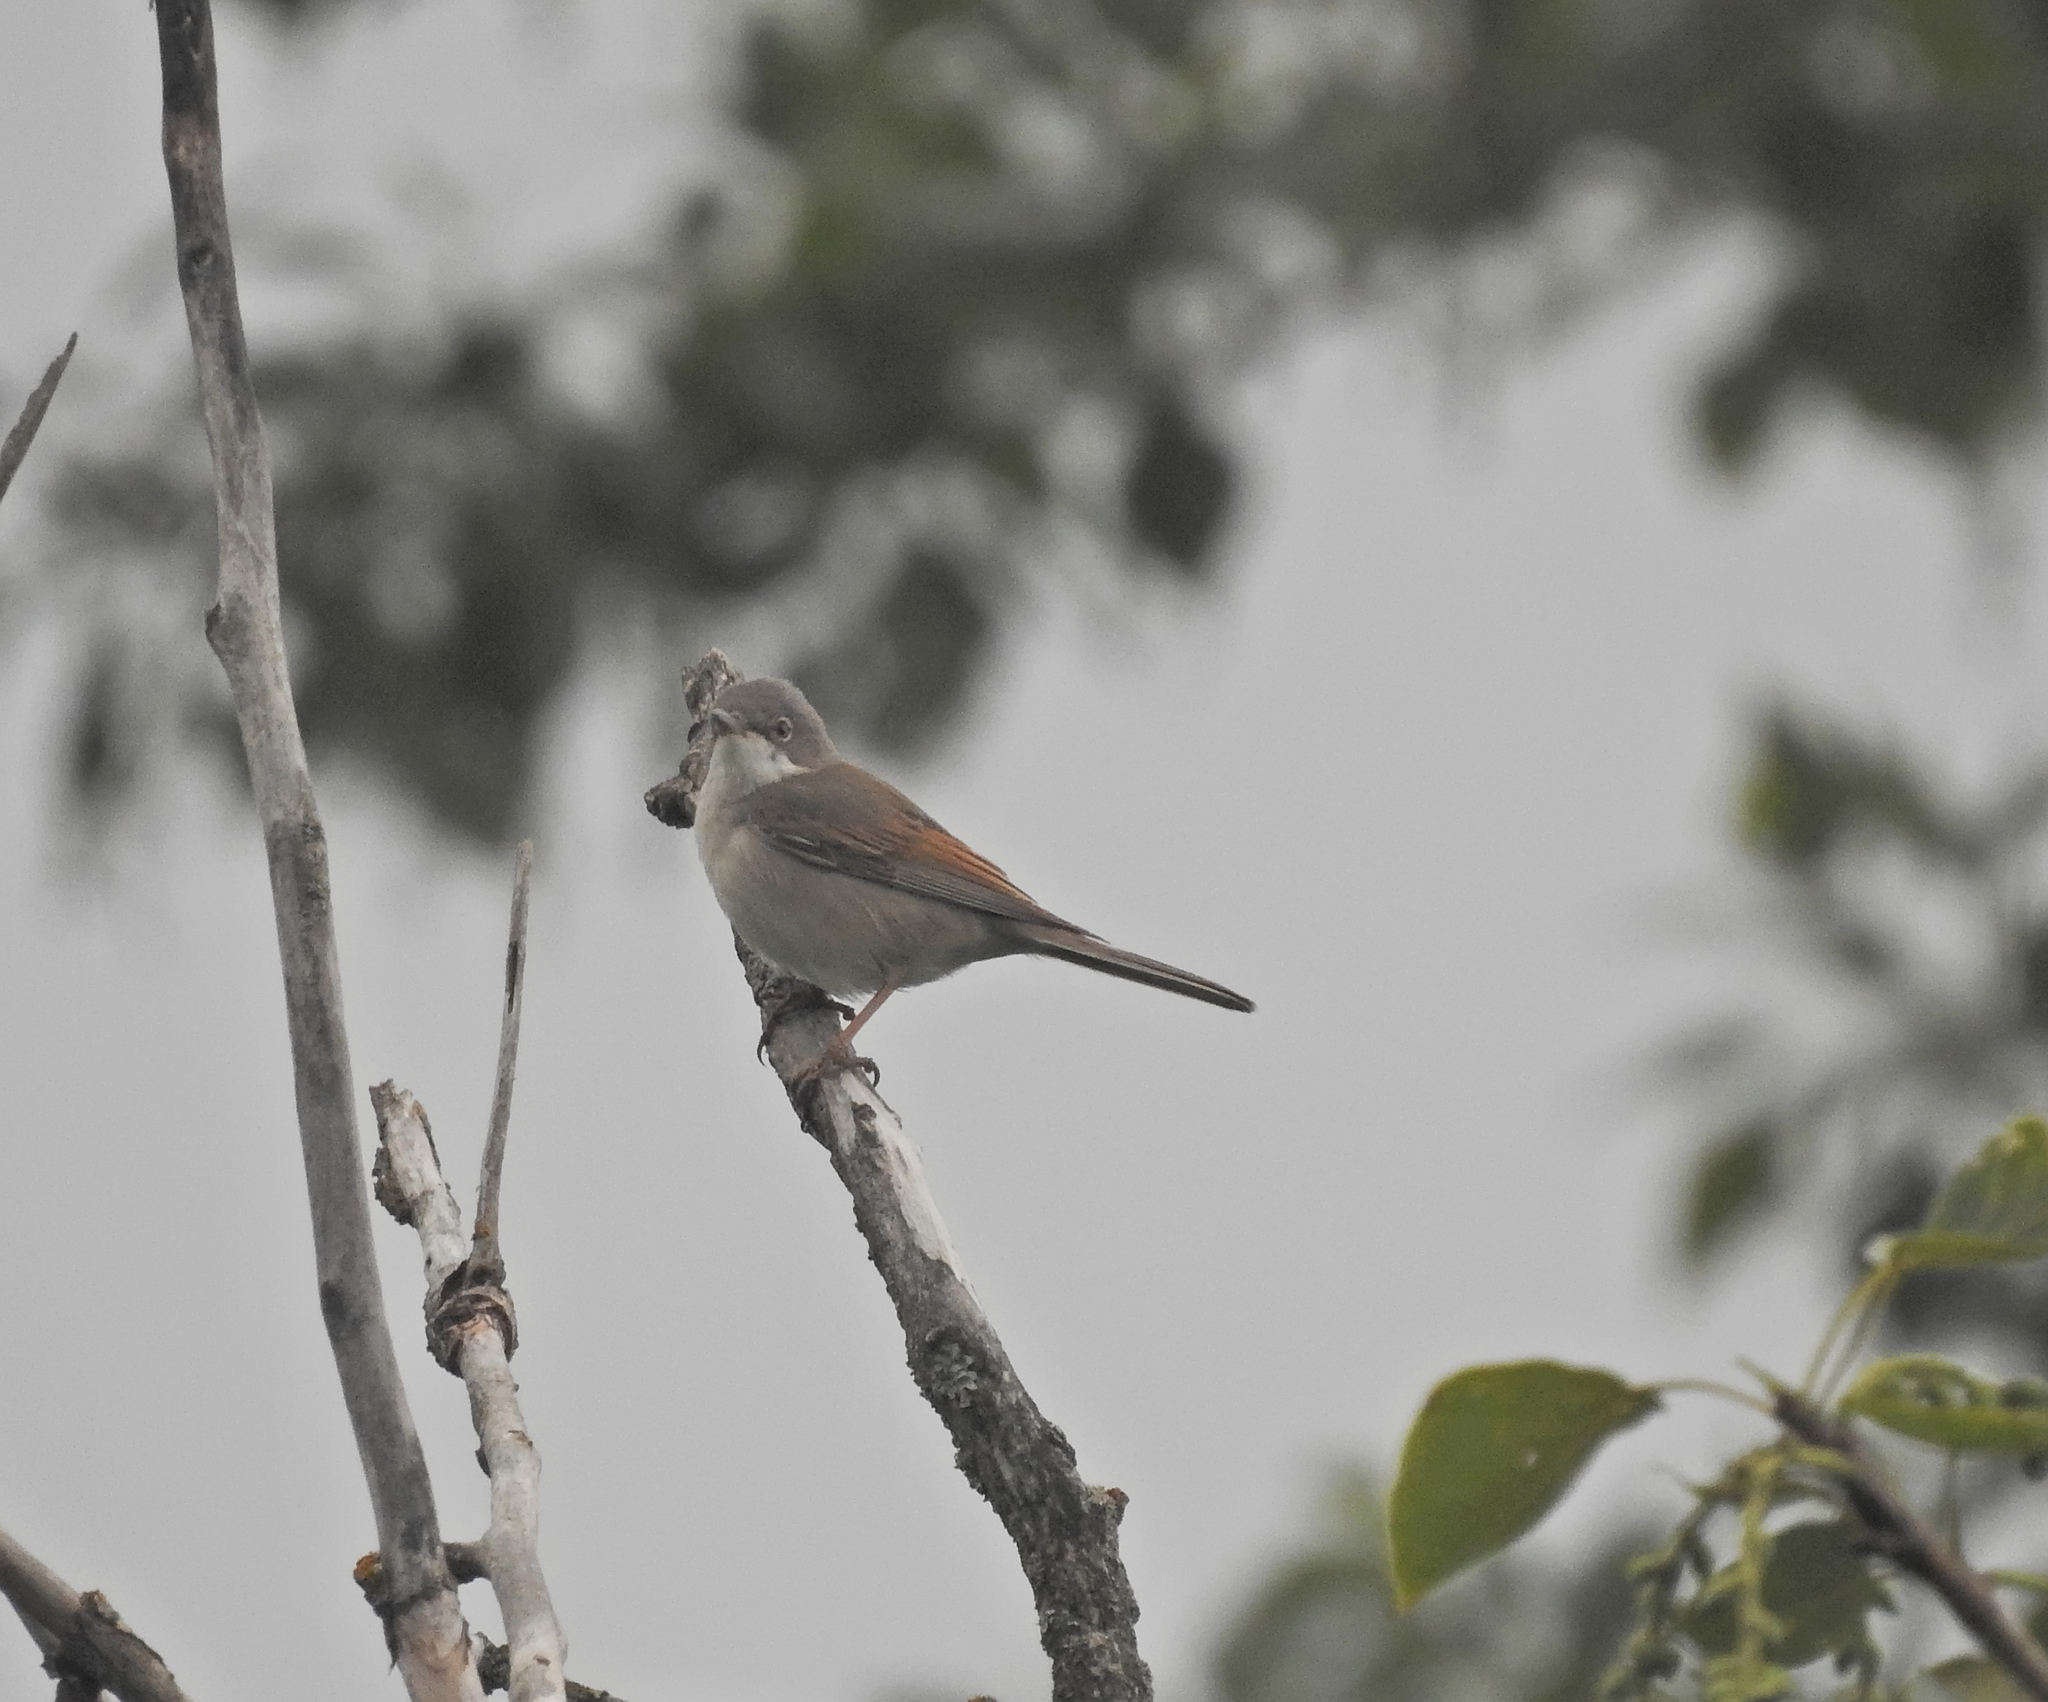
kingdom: Animalia
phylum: Chordata
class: Aves
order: Passeriformes
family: Sylviidae
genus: Sylvia
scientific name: Sylvia communis
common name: Common whitethroat
